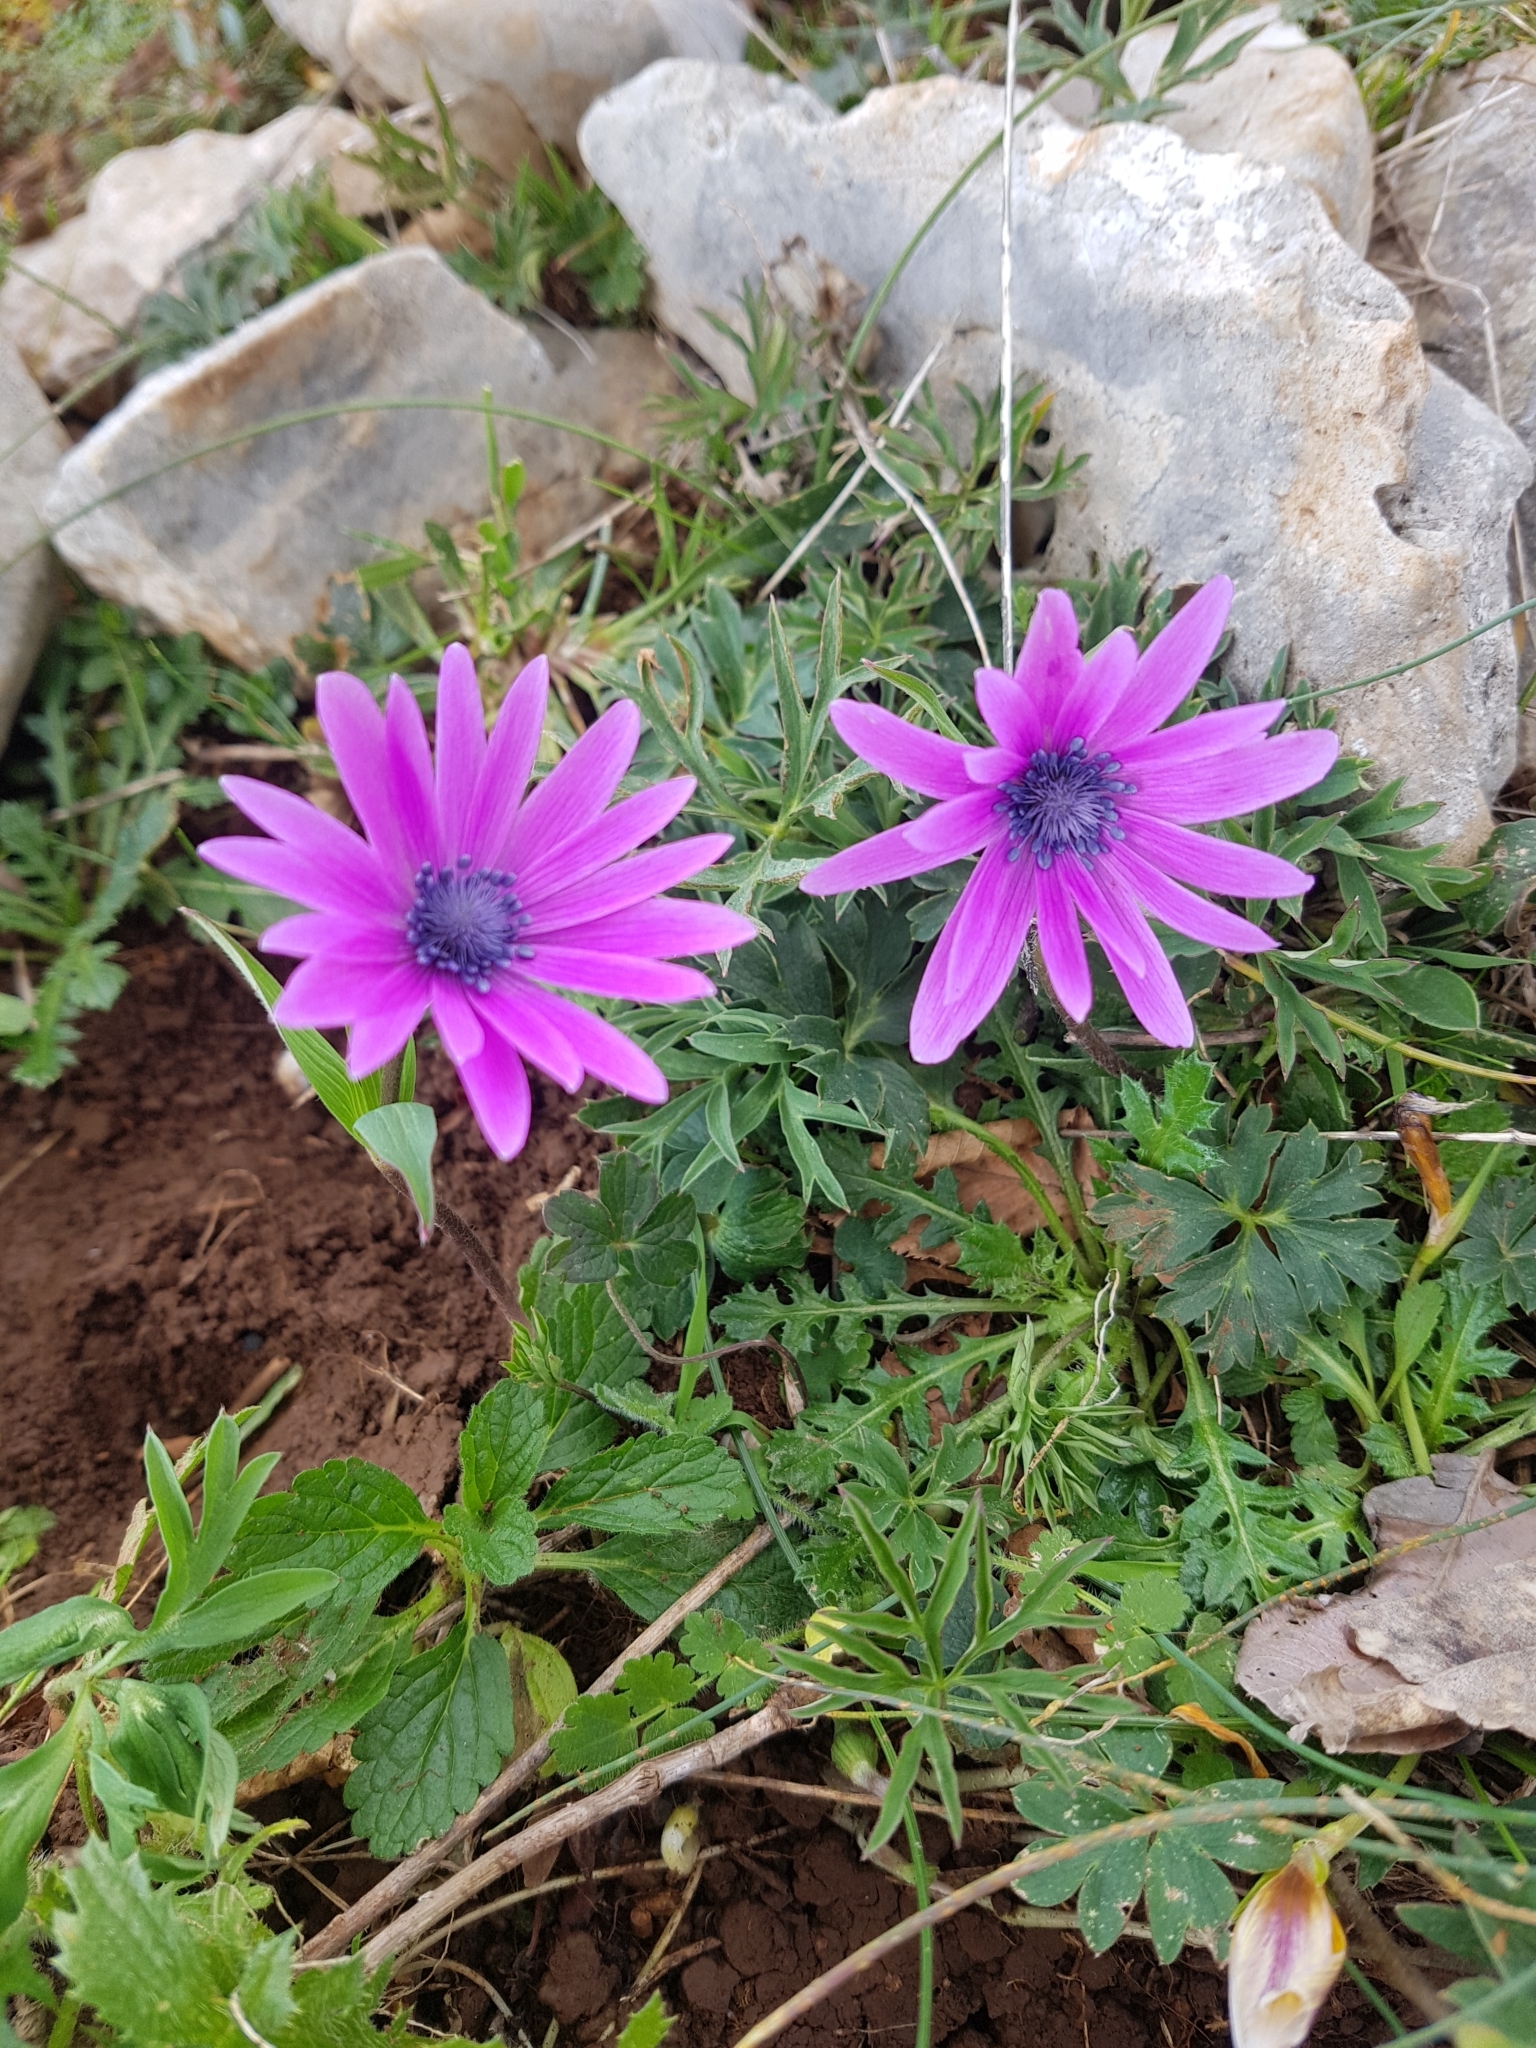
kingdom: Plantae
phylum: Tracheophyta
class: Magnoliopsida
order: Ranunculales
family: Ranunculaceae
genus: Anemone
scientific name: Anemone hortensis
